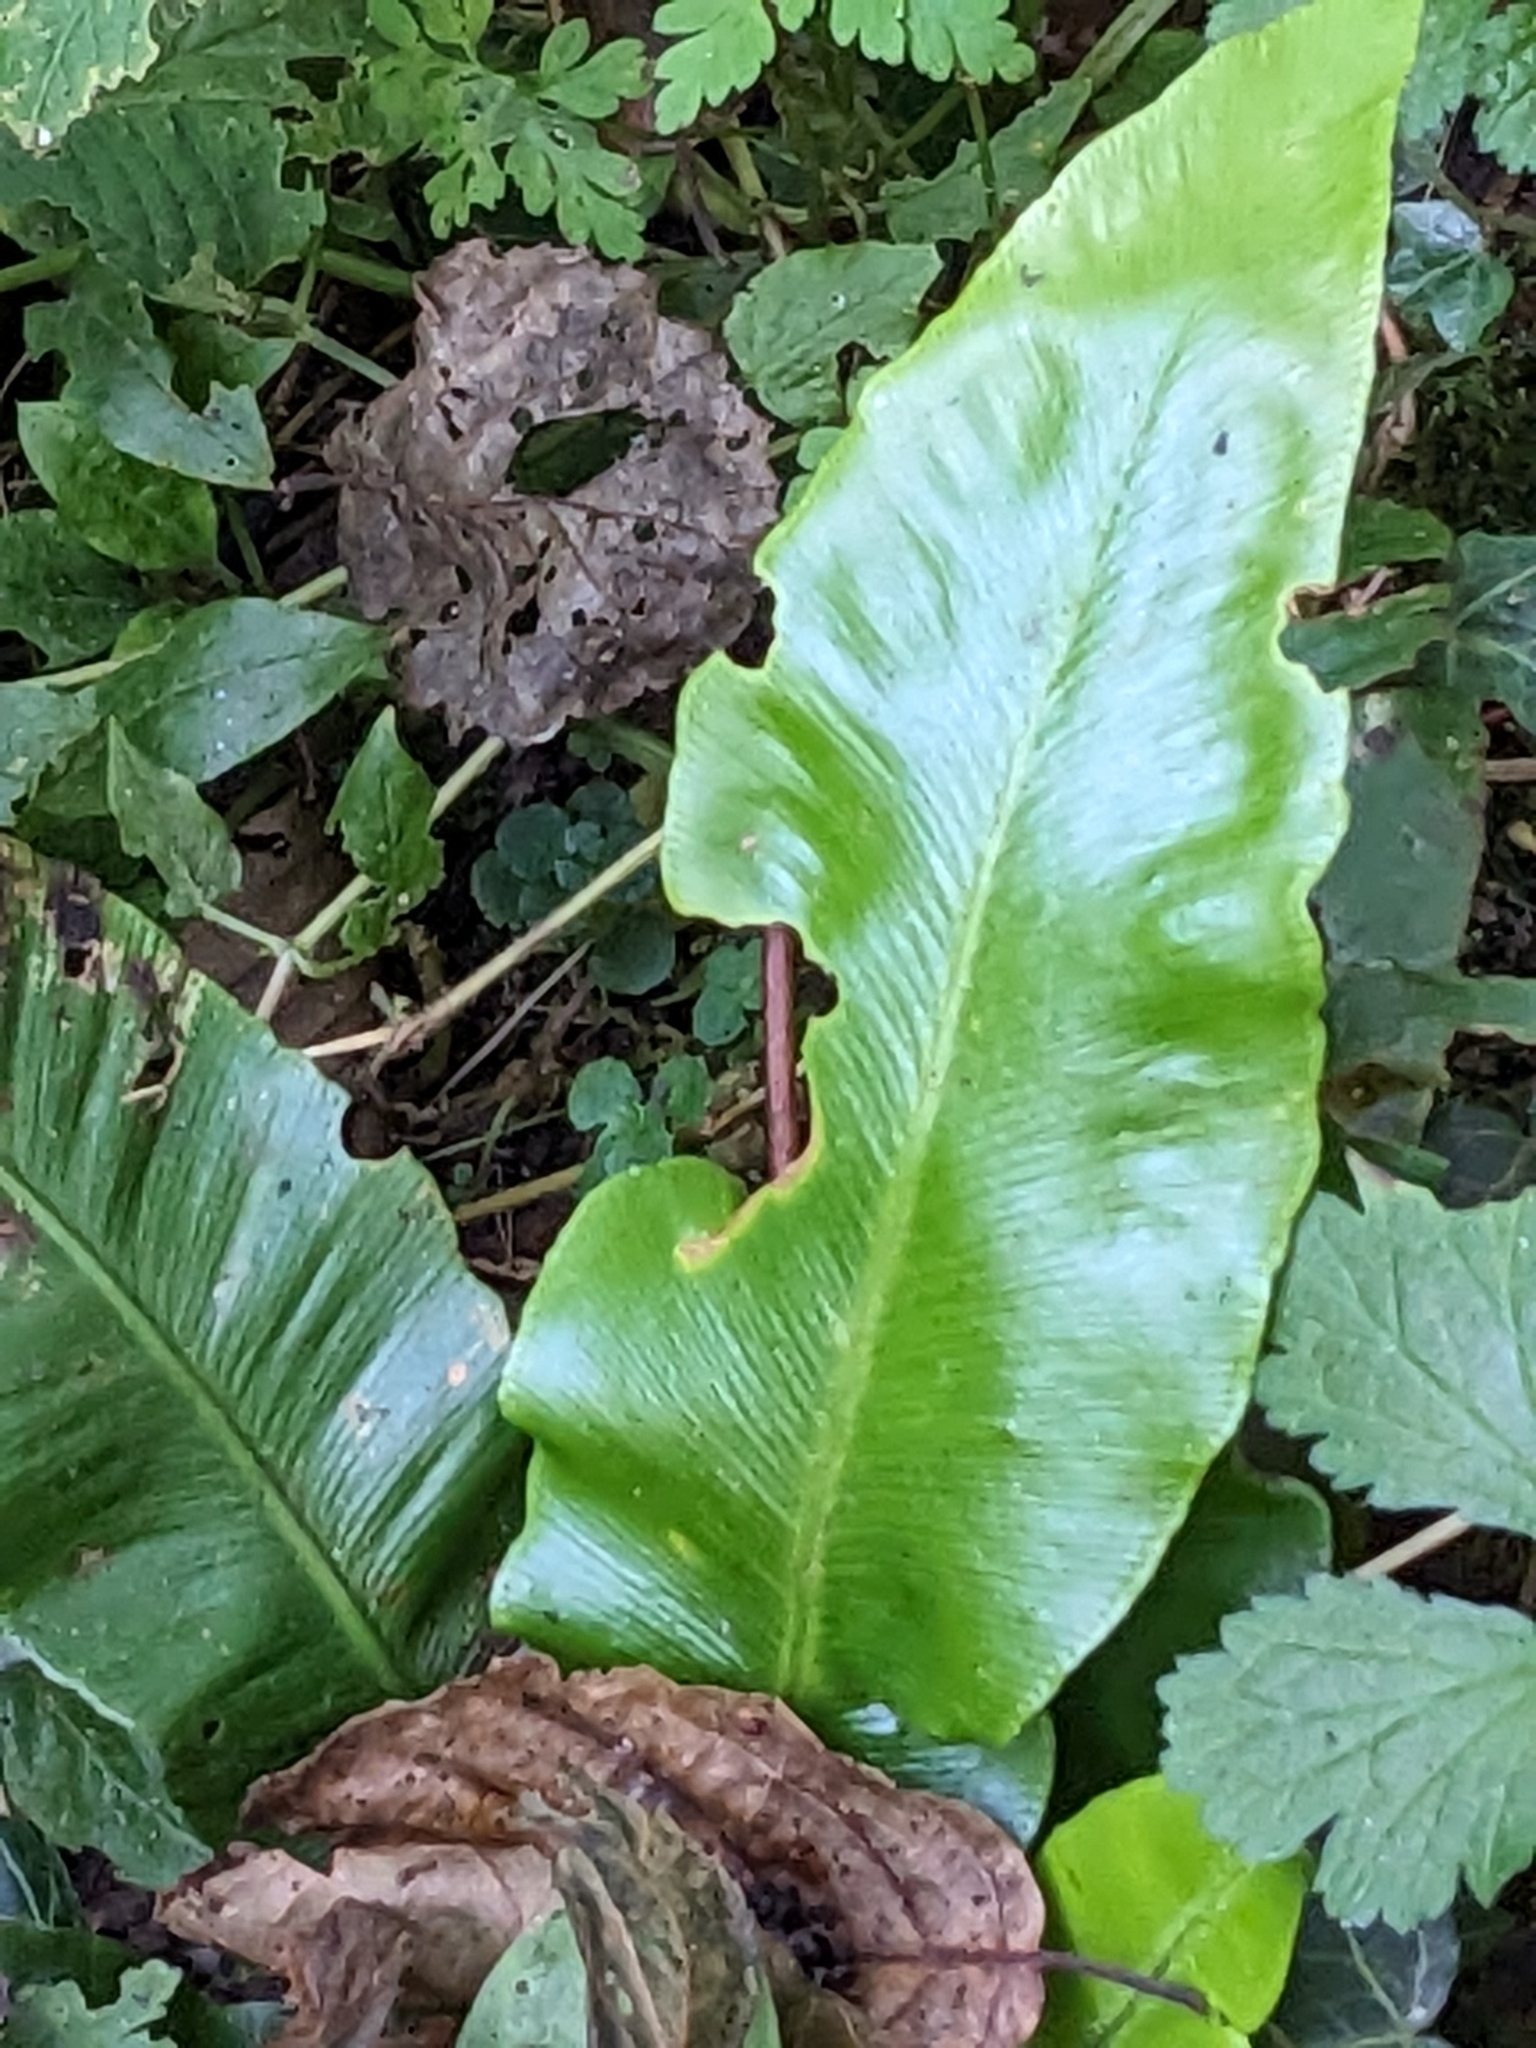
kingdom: Plantae
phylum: Tracheophyta
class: Polypodiopsida
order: Polypodiales
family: Aspleniaceae
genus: Asplenium
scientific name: Asplenium scolopendrium
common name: Hart's-tongue fern
